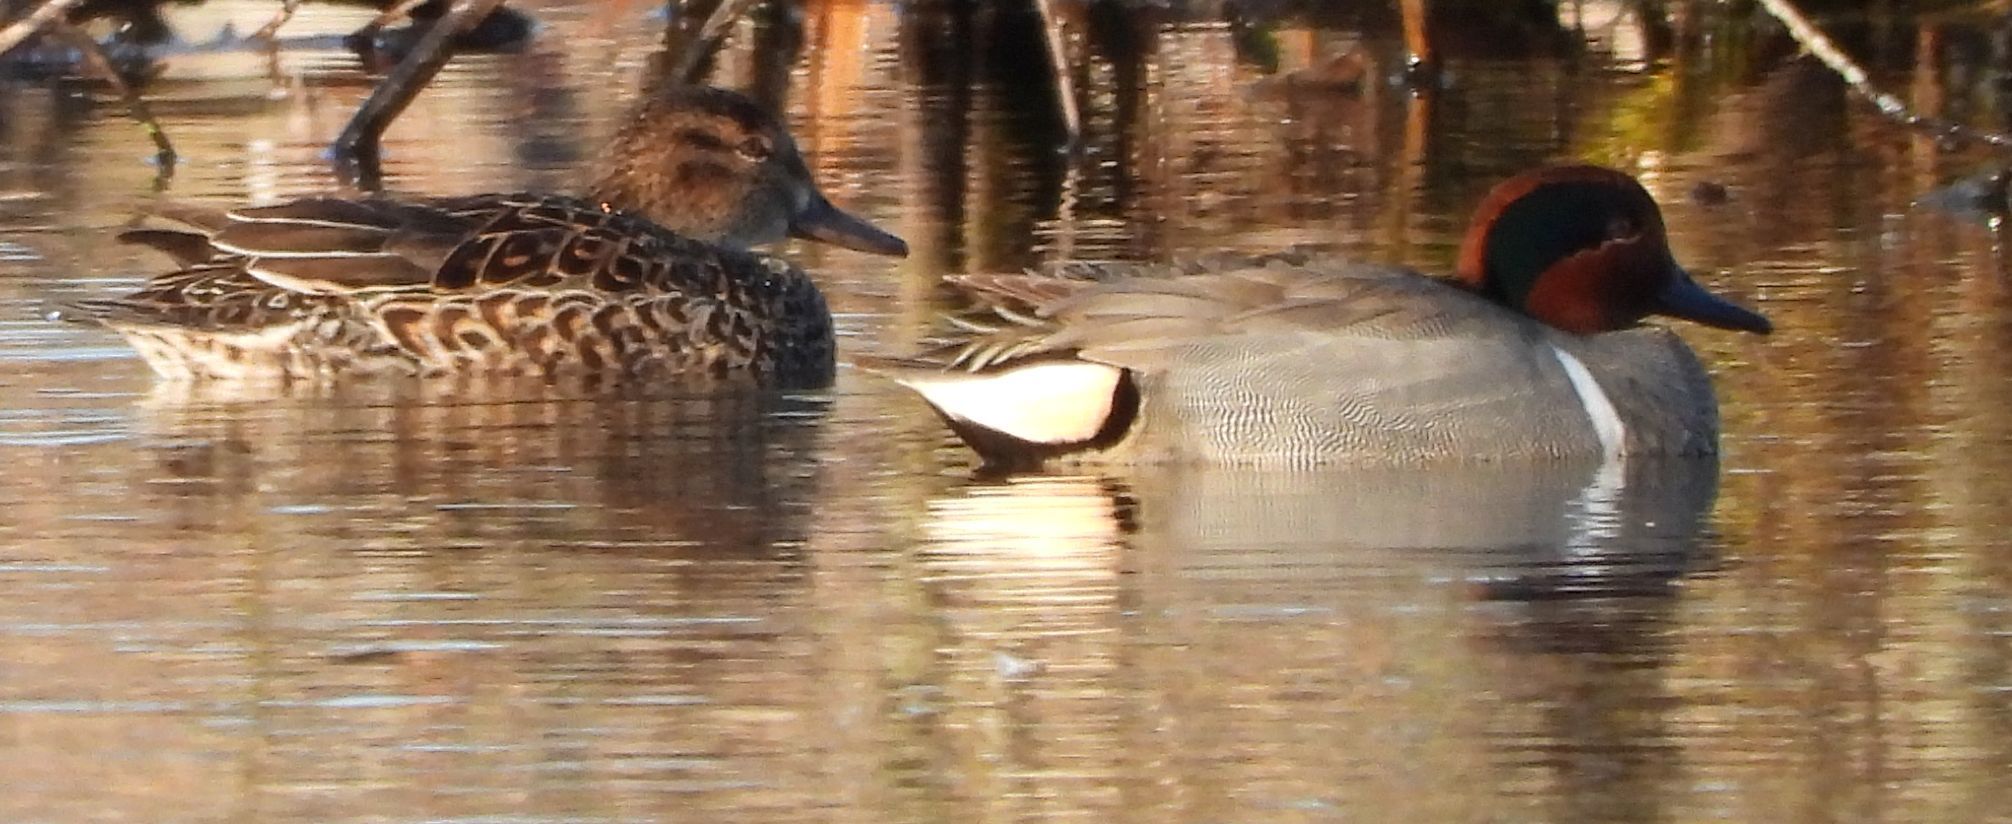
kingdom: Animalia
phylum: Chordata
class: Aves
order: Anseriformes
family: Anatidae
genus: Anas
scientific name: Anas crecca
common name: Eurasian teal
